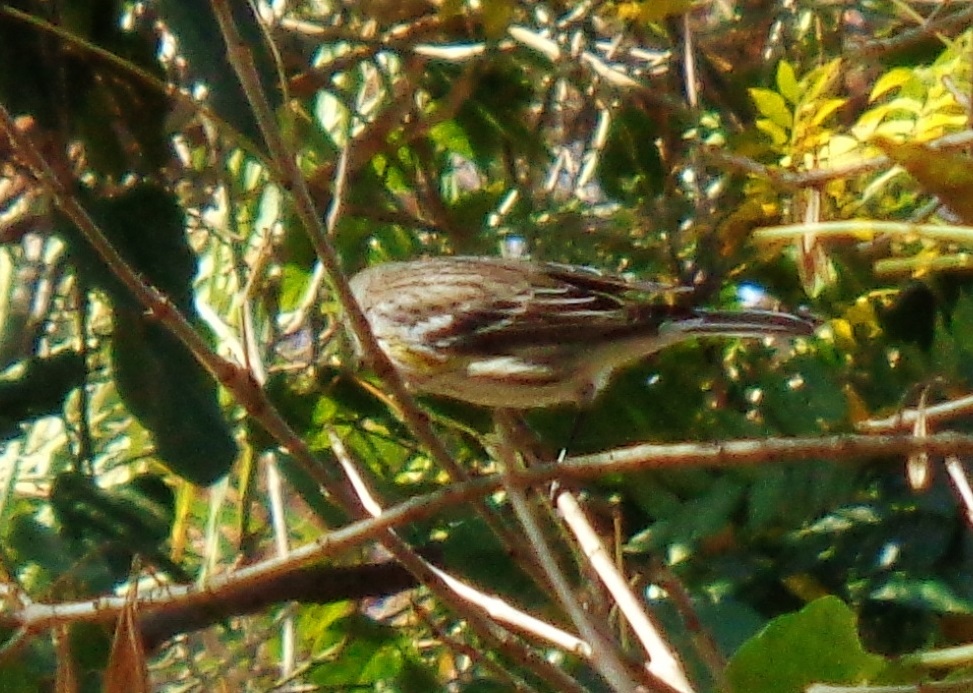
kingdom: Animalia
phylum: Chordata
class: Aves
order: Passeriformes
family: Parulidae
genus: Setophaga
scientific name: Setophaga coronata
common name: Myrtle warbler
